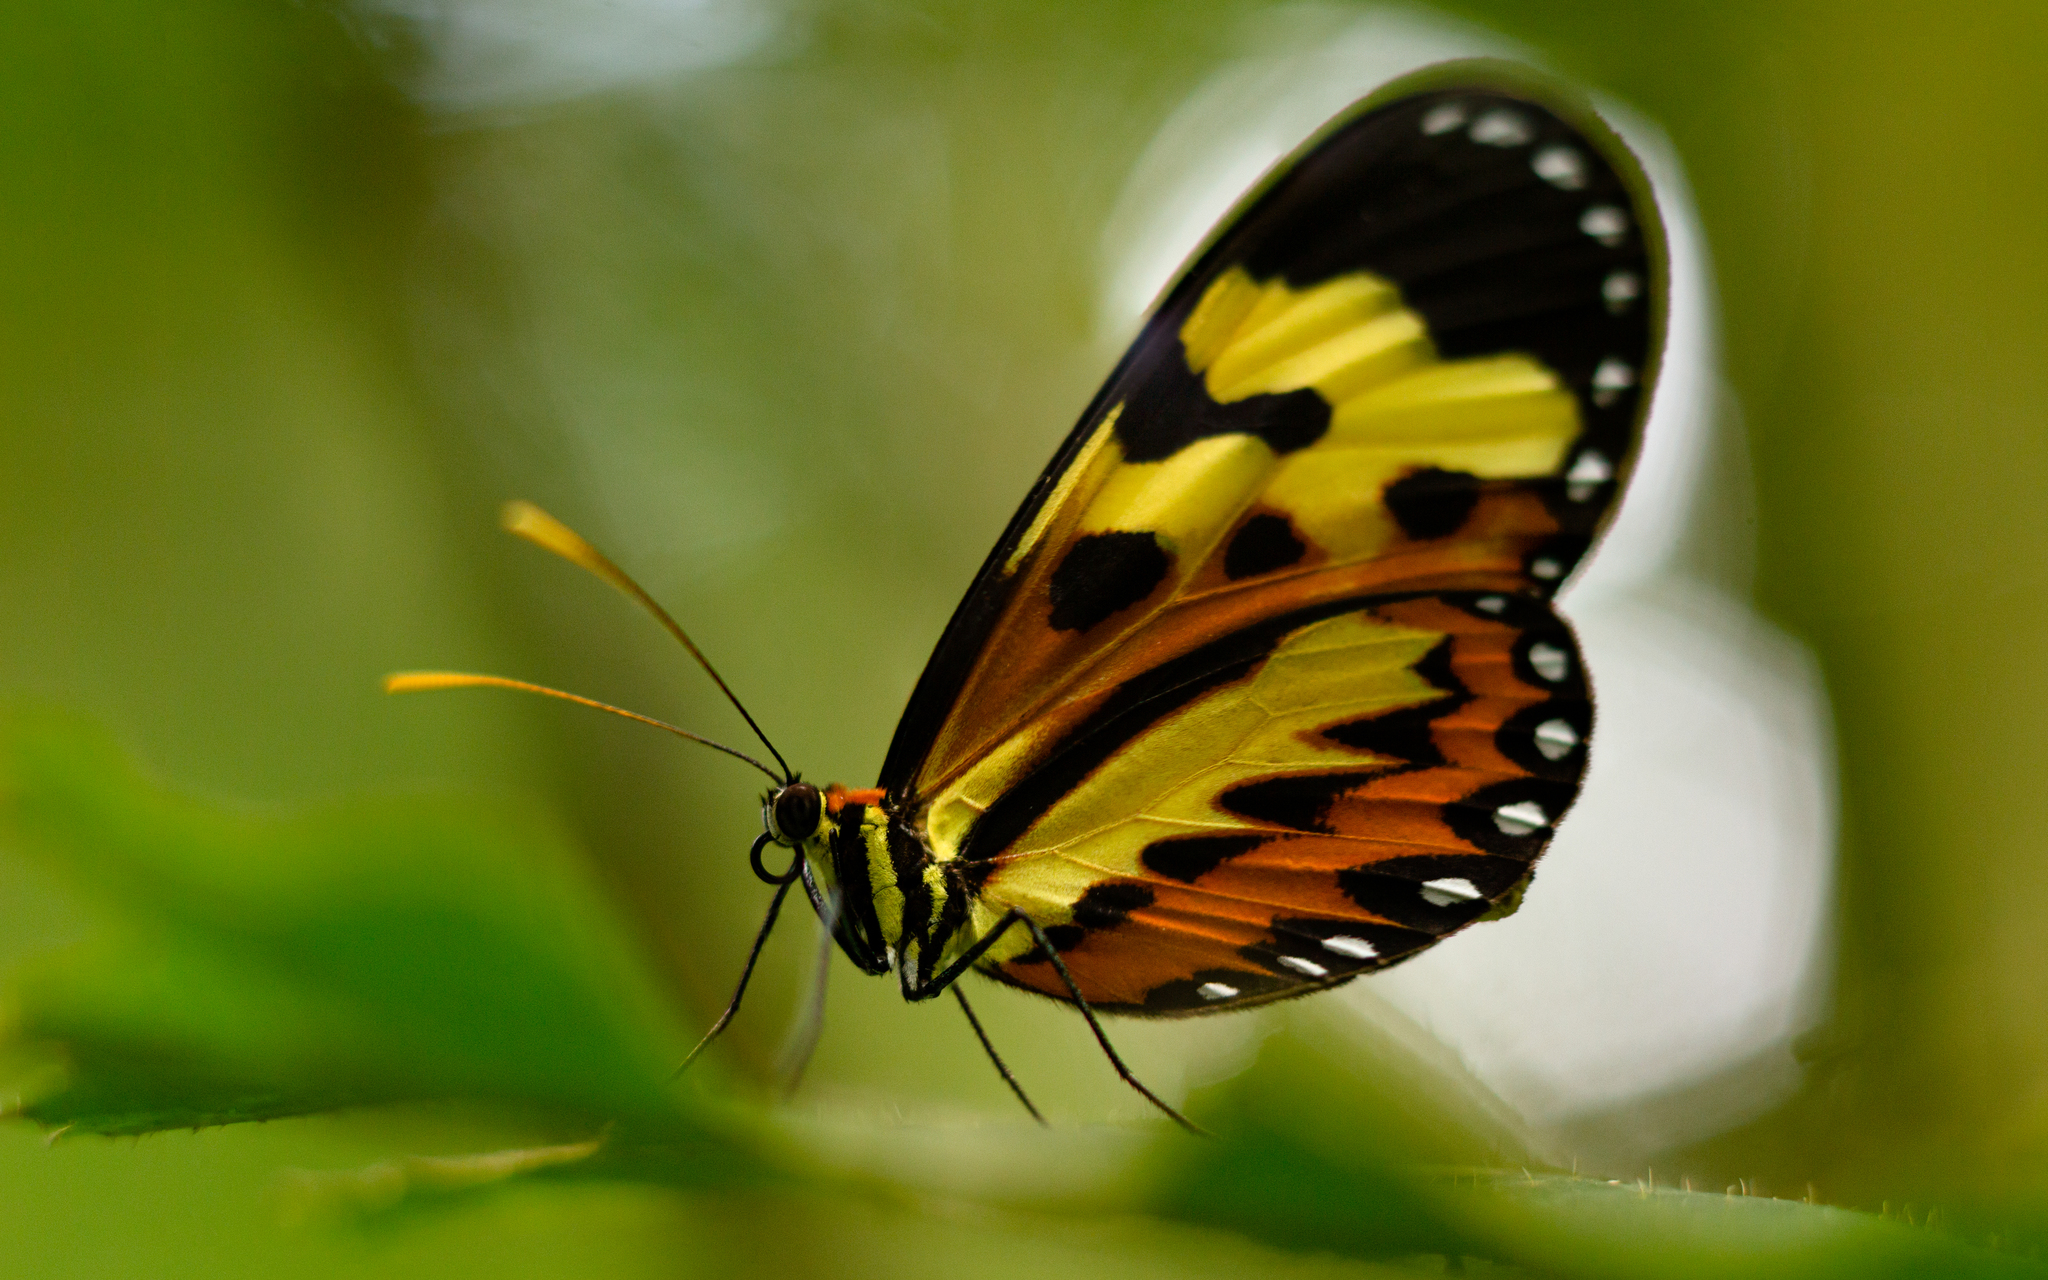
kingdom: Animalia
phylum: Arthropoda
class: Insecta
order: Lepidoptera
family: Nymphalidae
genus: Mechanitis
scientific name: Mechanitis polymnia
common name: Disturbed tigerwing
